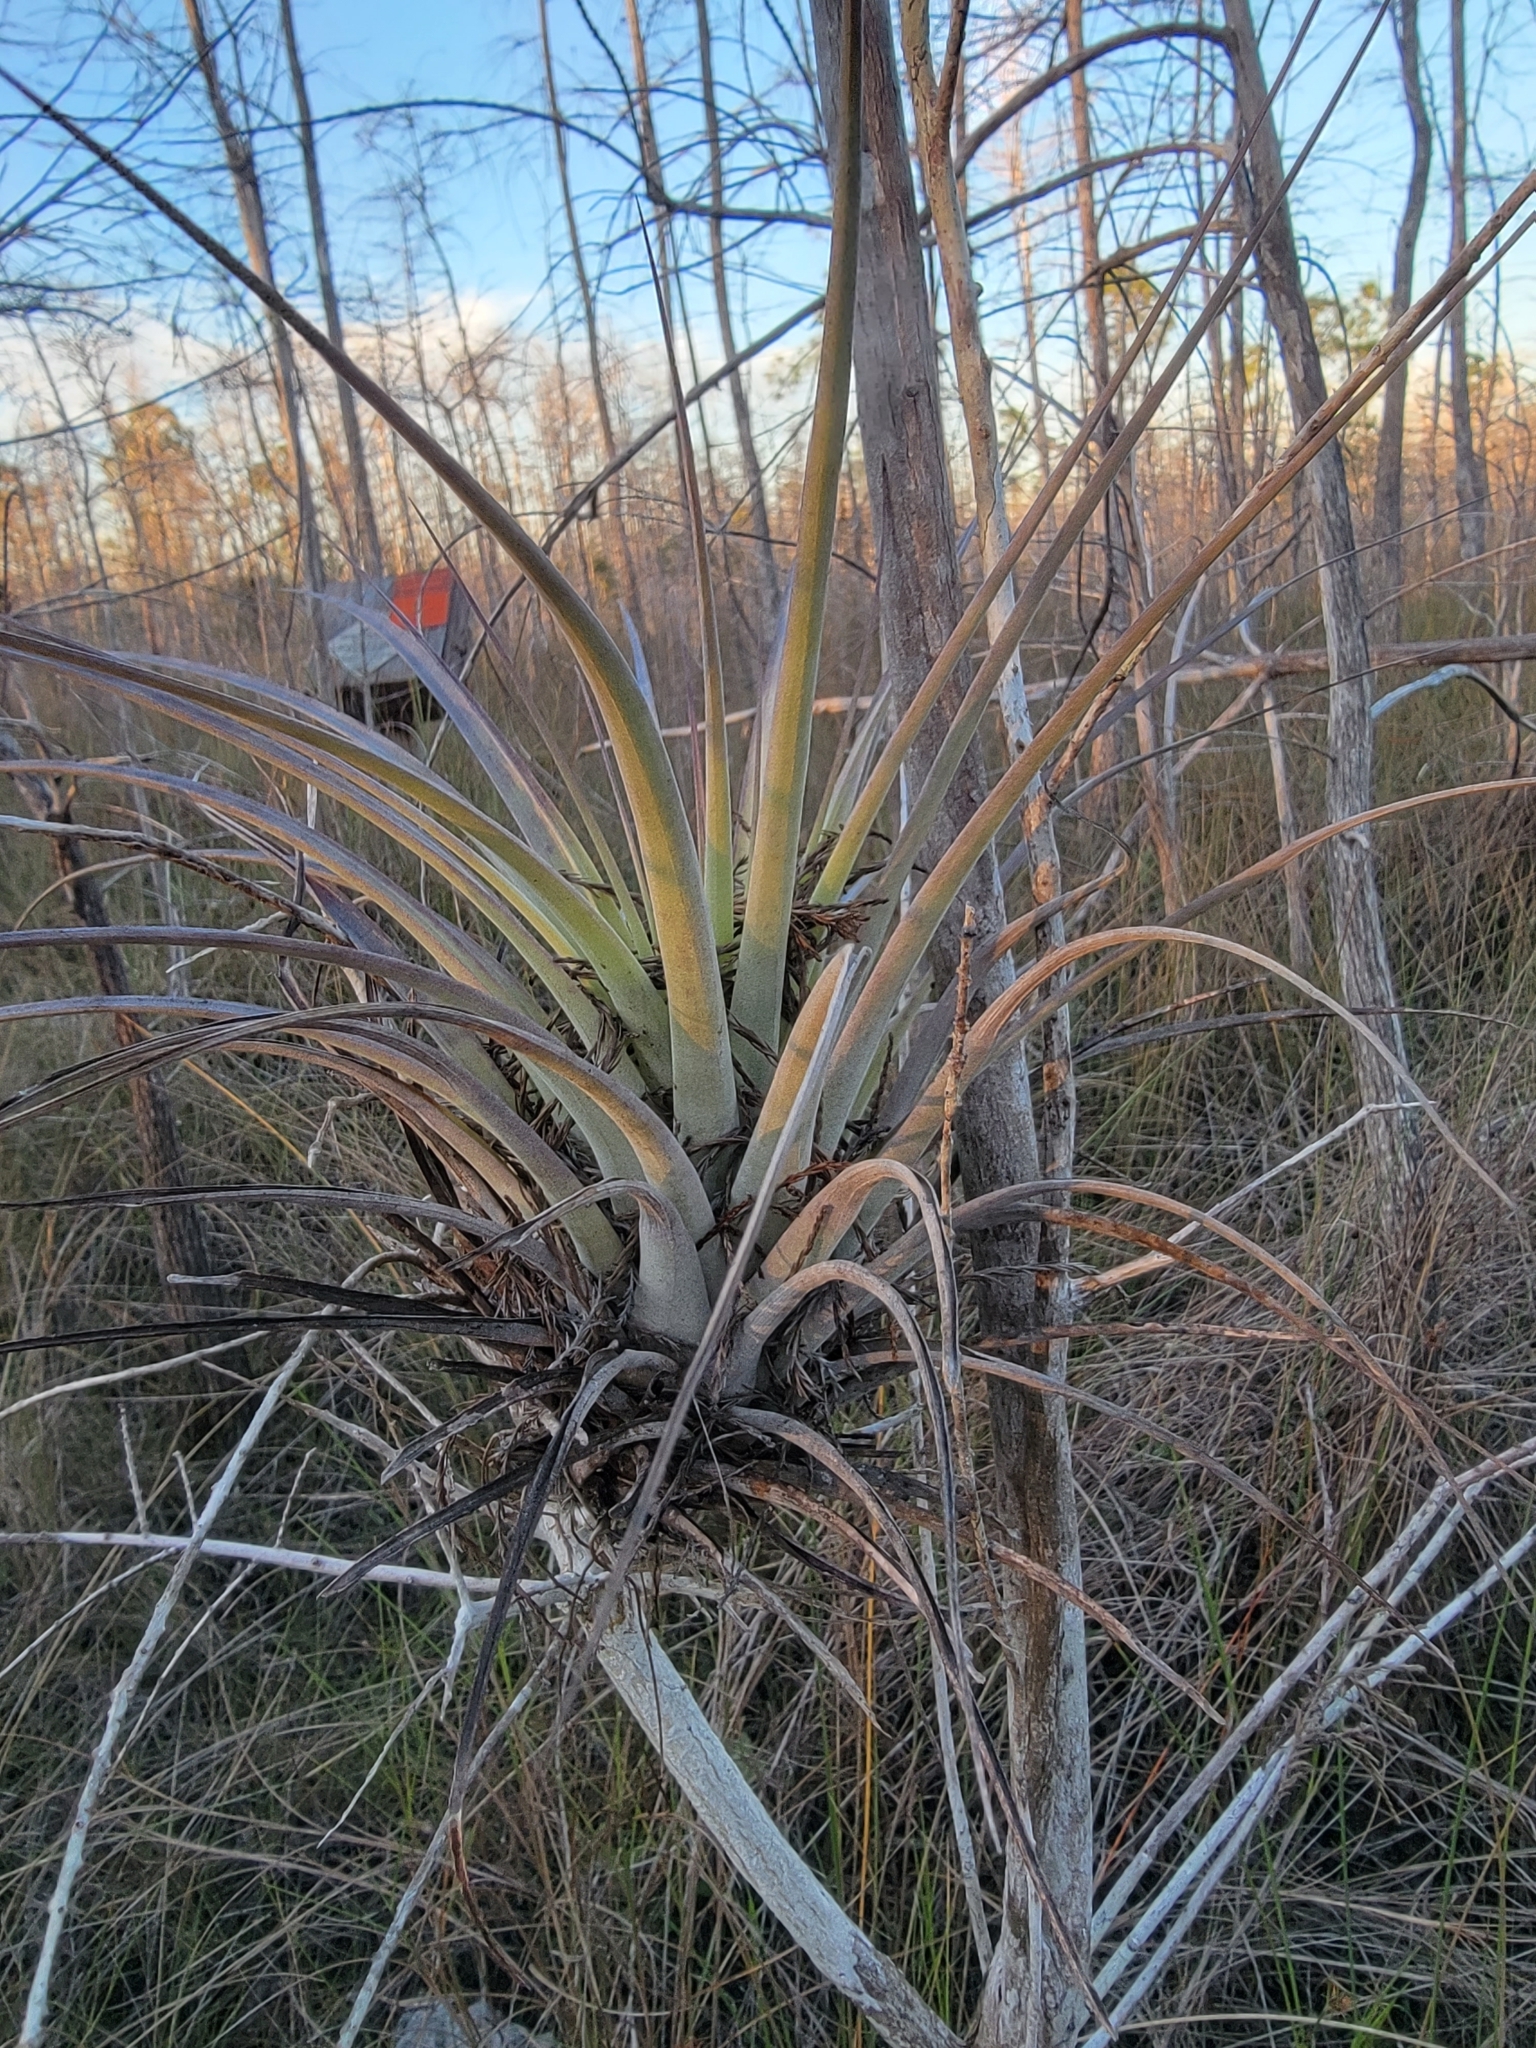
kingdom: Plantae
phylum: Tracheophyta
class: Liliopsida
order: Poales
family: Bromeliaceae
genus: Tillandsia
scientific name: Tillandsia fasciculata
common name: Giant airplant
